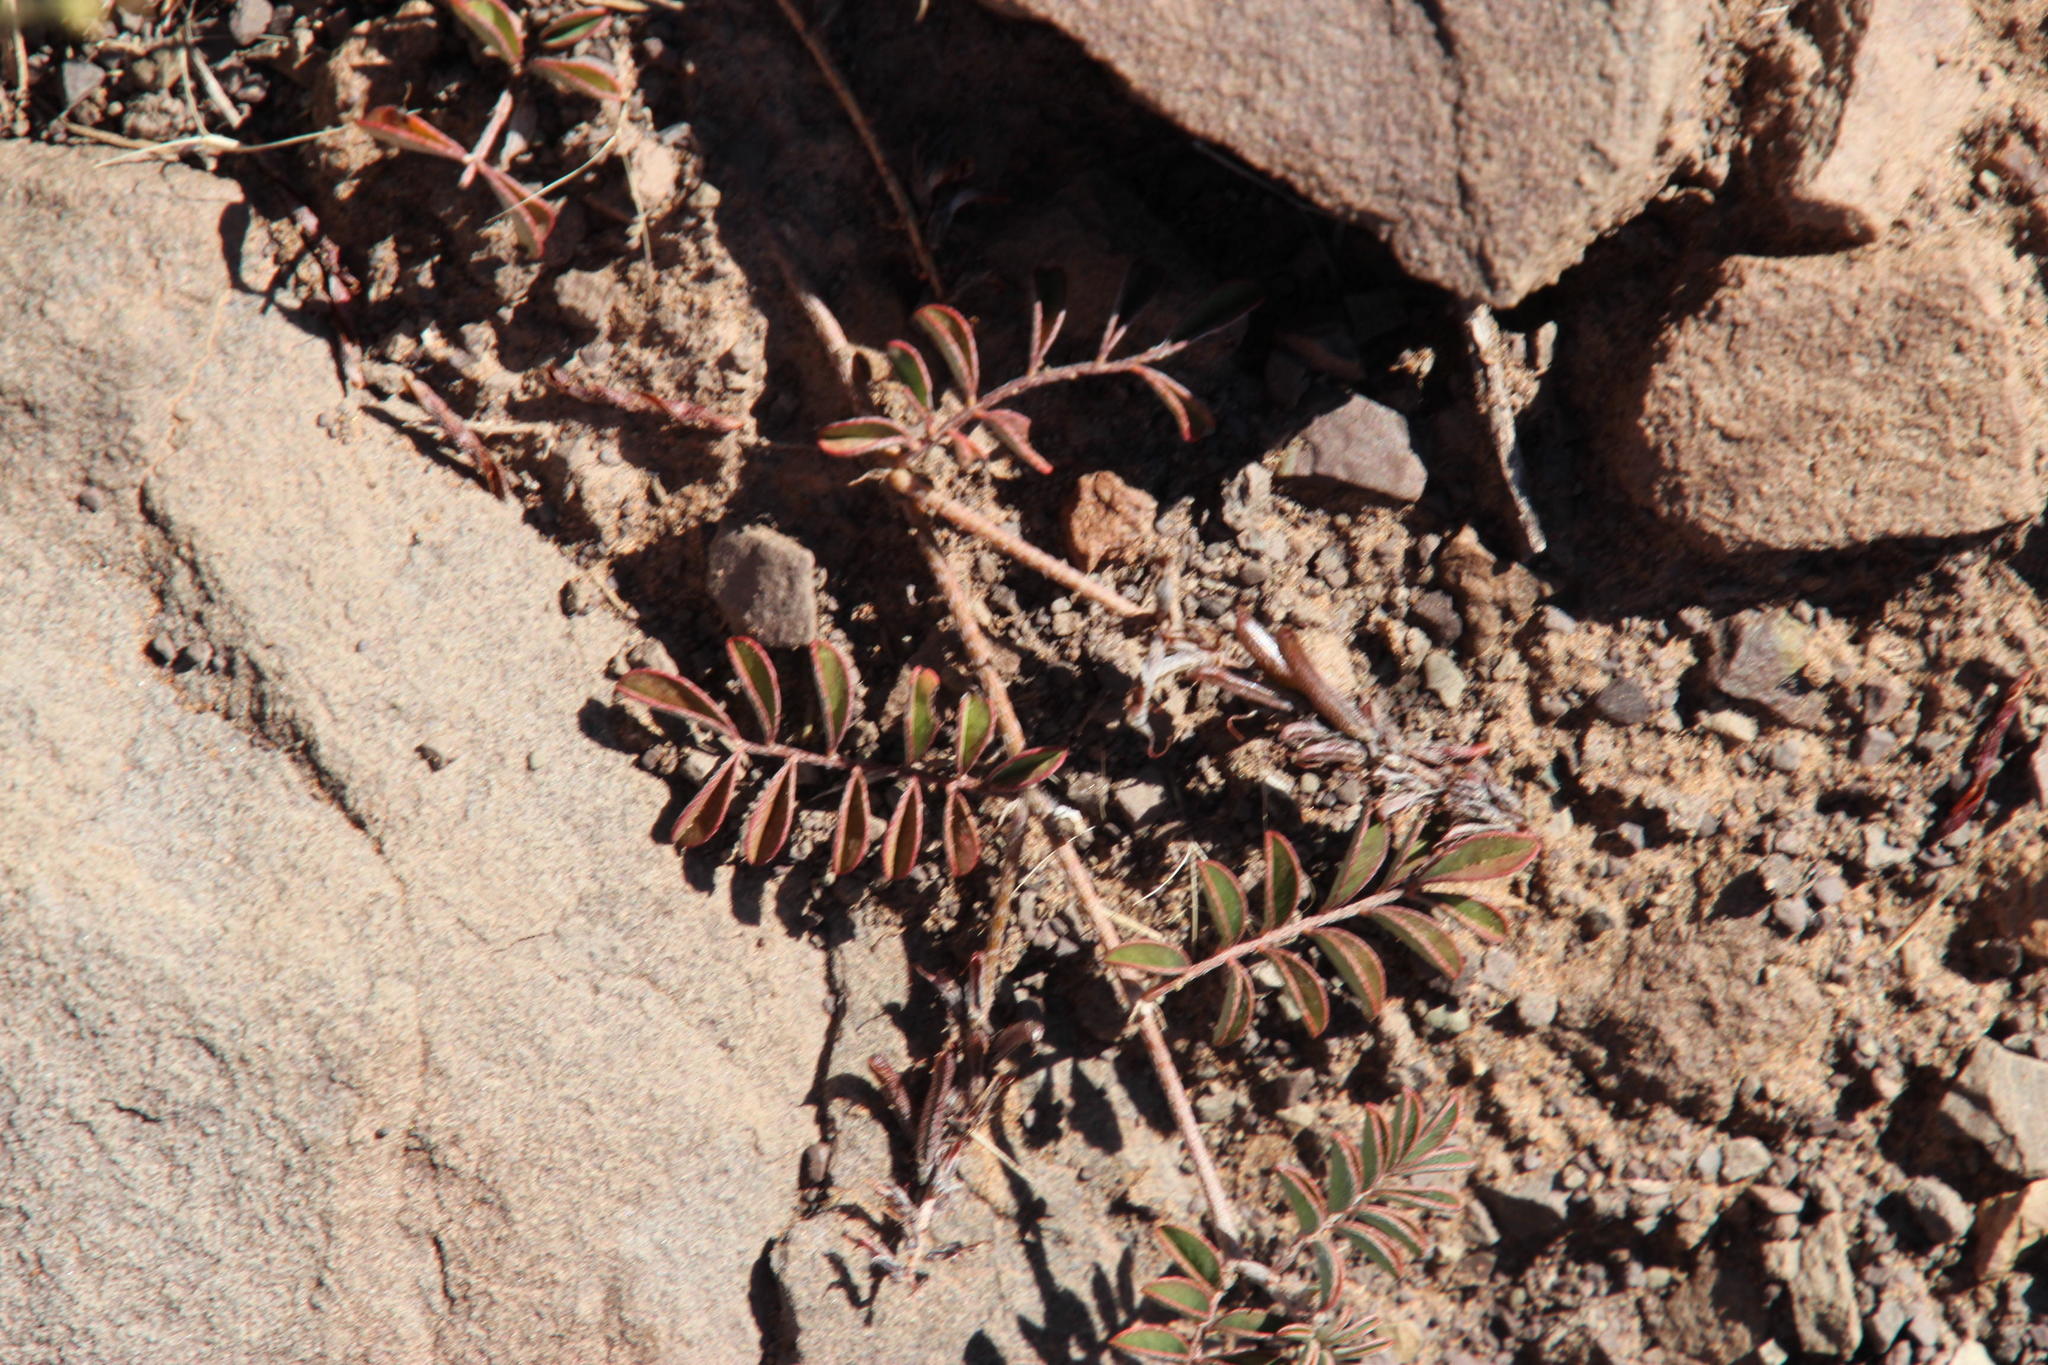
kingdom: Plantae
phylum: Tracheophyta
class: Magnoliopsida
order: Fabales
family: Fabaceae
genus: Indigofera
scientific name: Indigofera alternans
